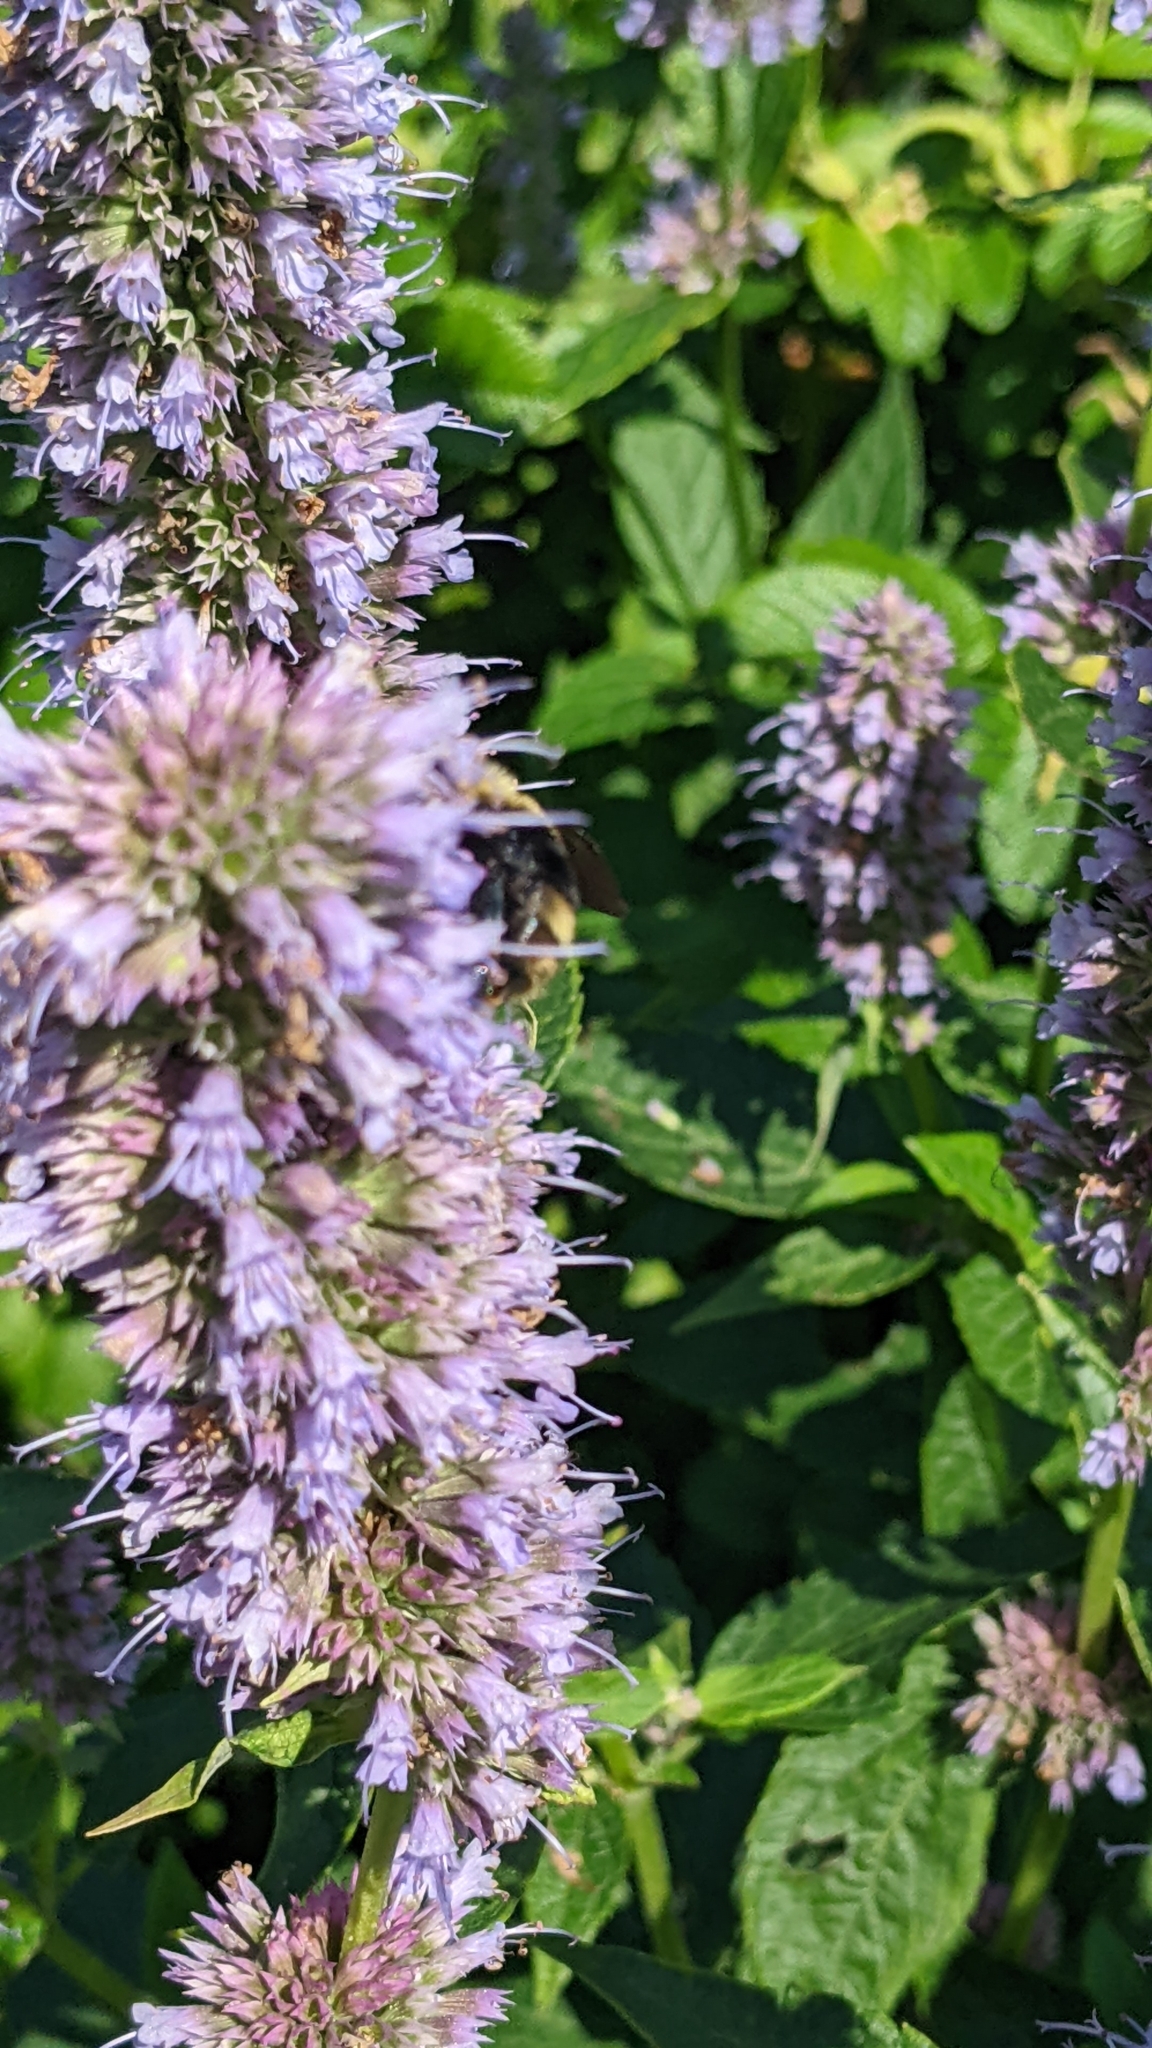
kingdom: Animalia
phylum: Arthropoda
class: Insecta
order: Hymenoptera
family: Apidae
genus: Bombus
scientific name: Bombus rufocinctus
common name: Red-belted bumble bee
